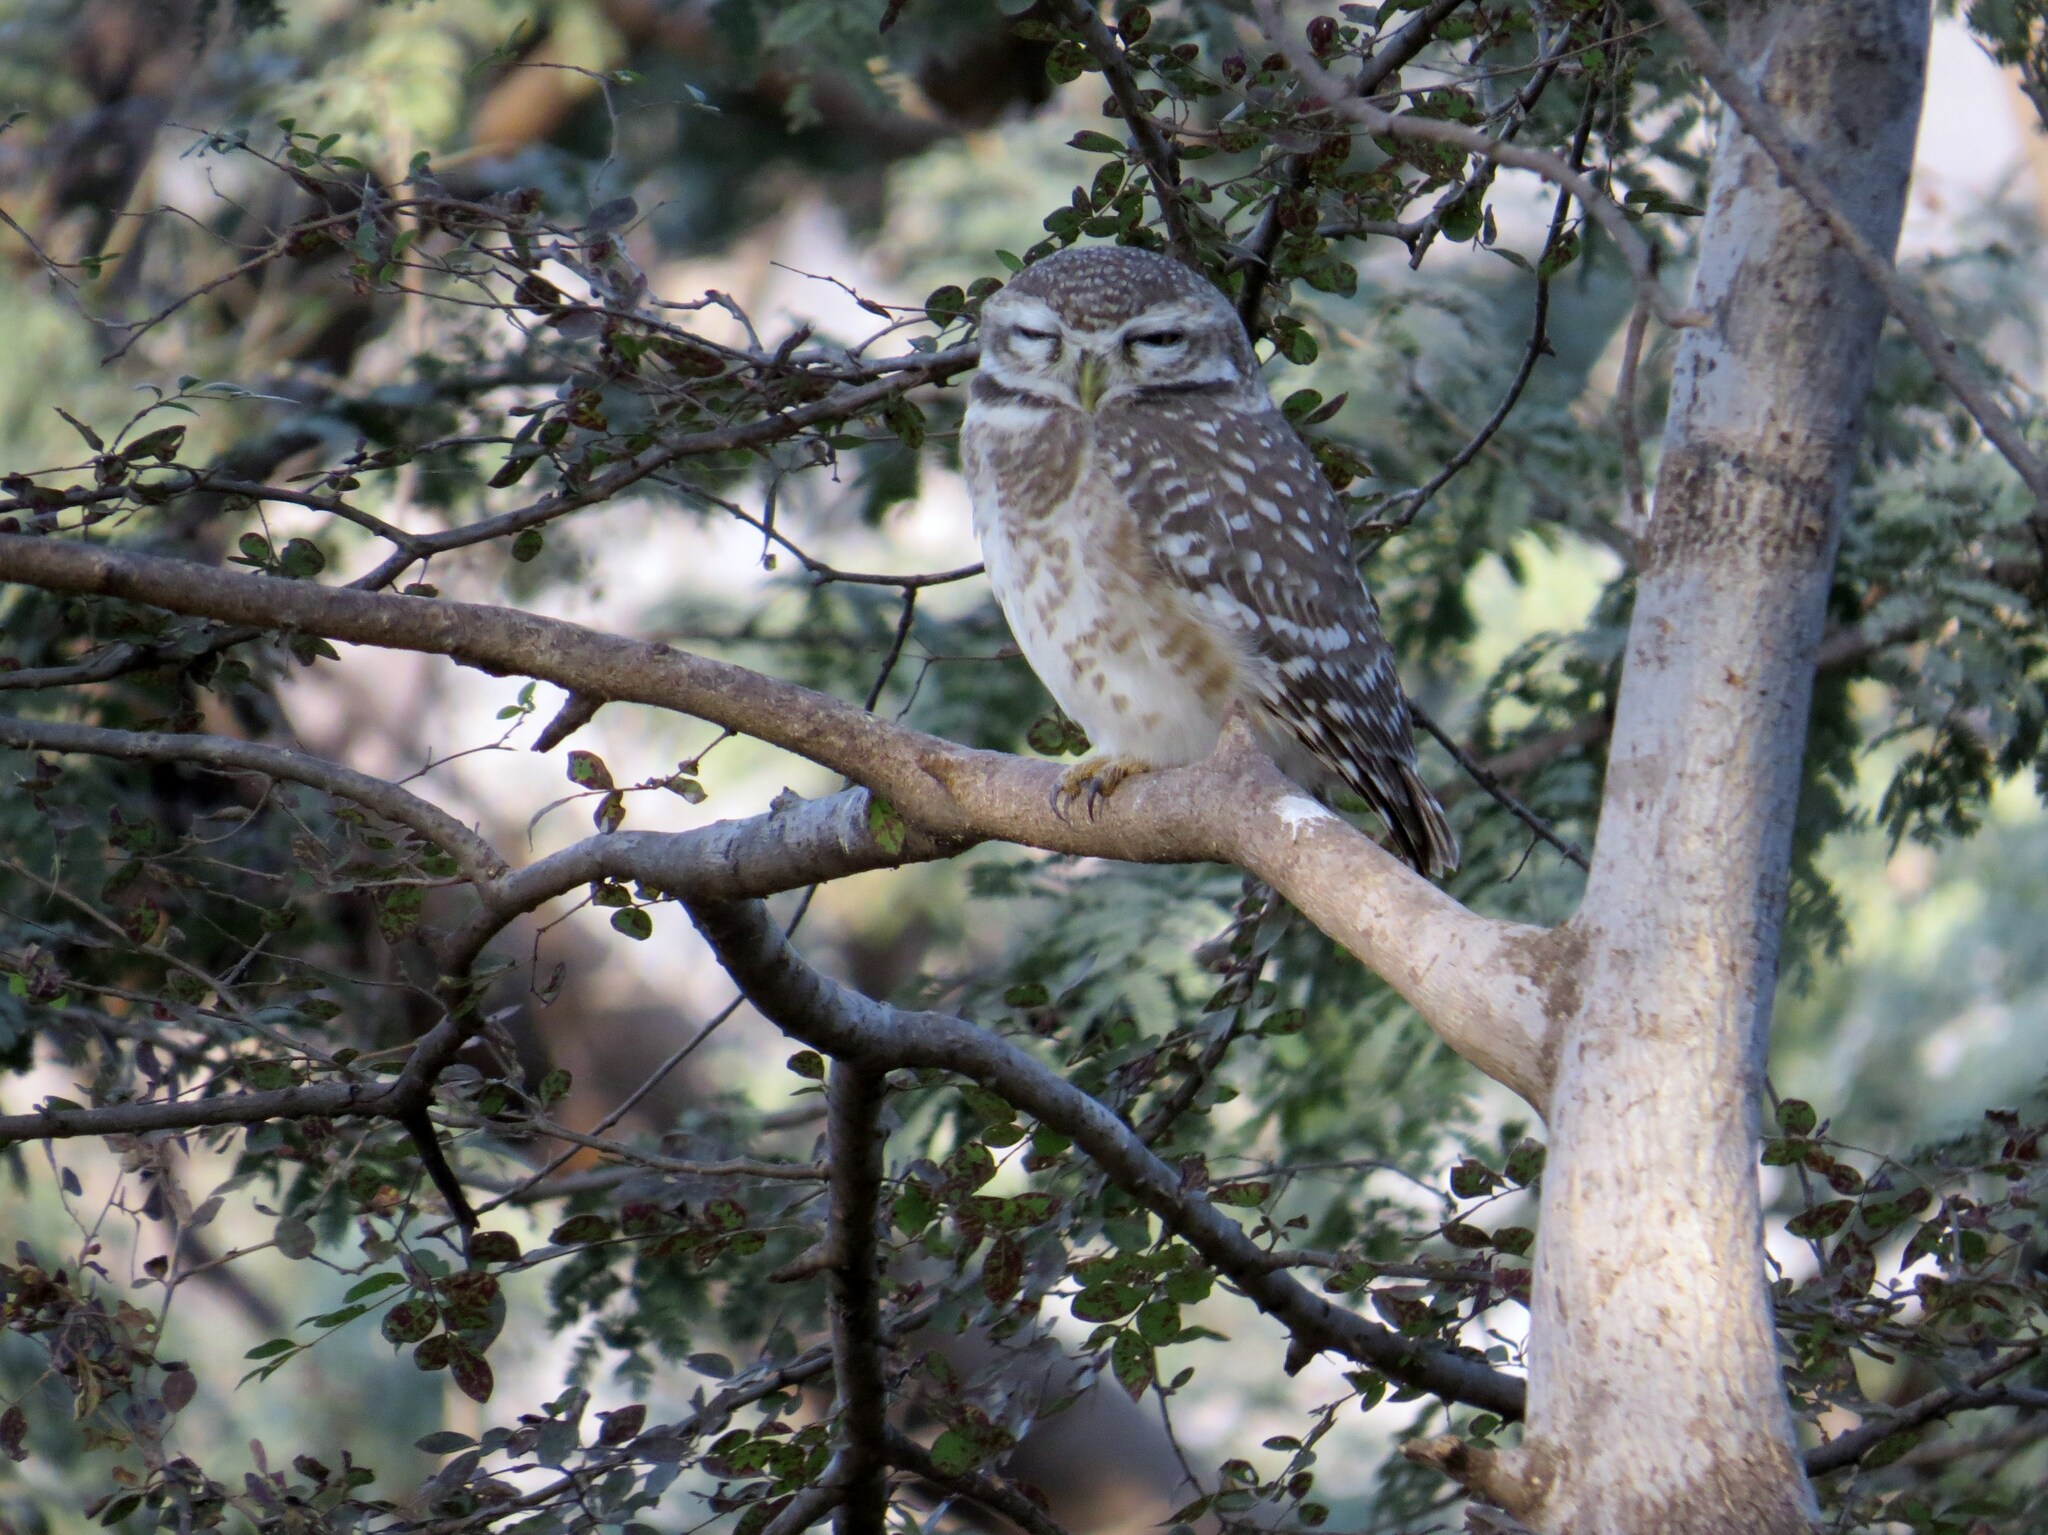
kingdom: Animalia
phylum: Chordata
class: Aves
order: Strigiformes
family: Strigidae
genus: Athene
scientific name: Athene brama
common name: Spotted owlet
